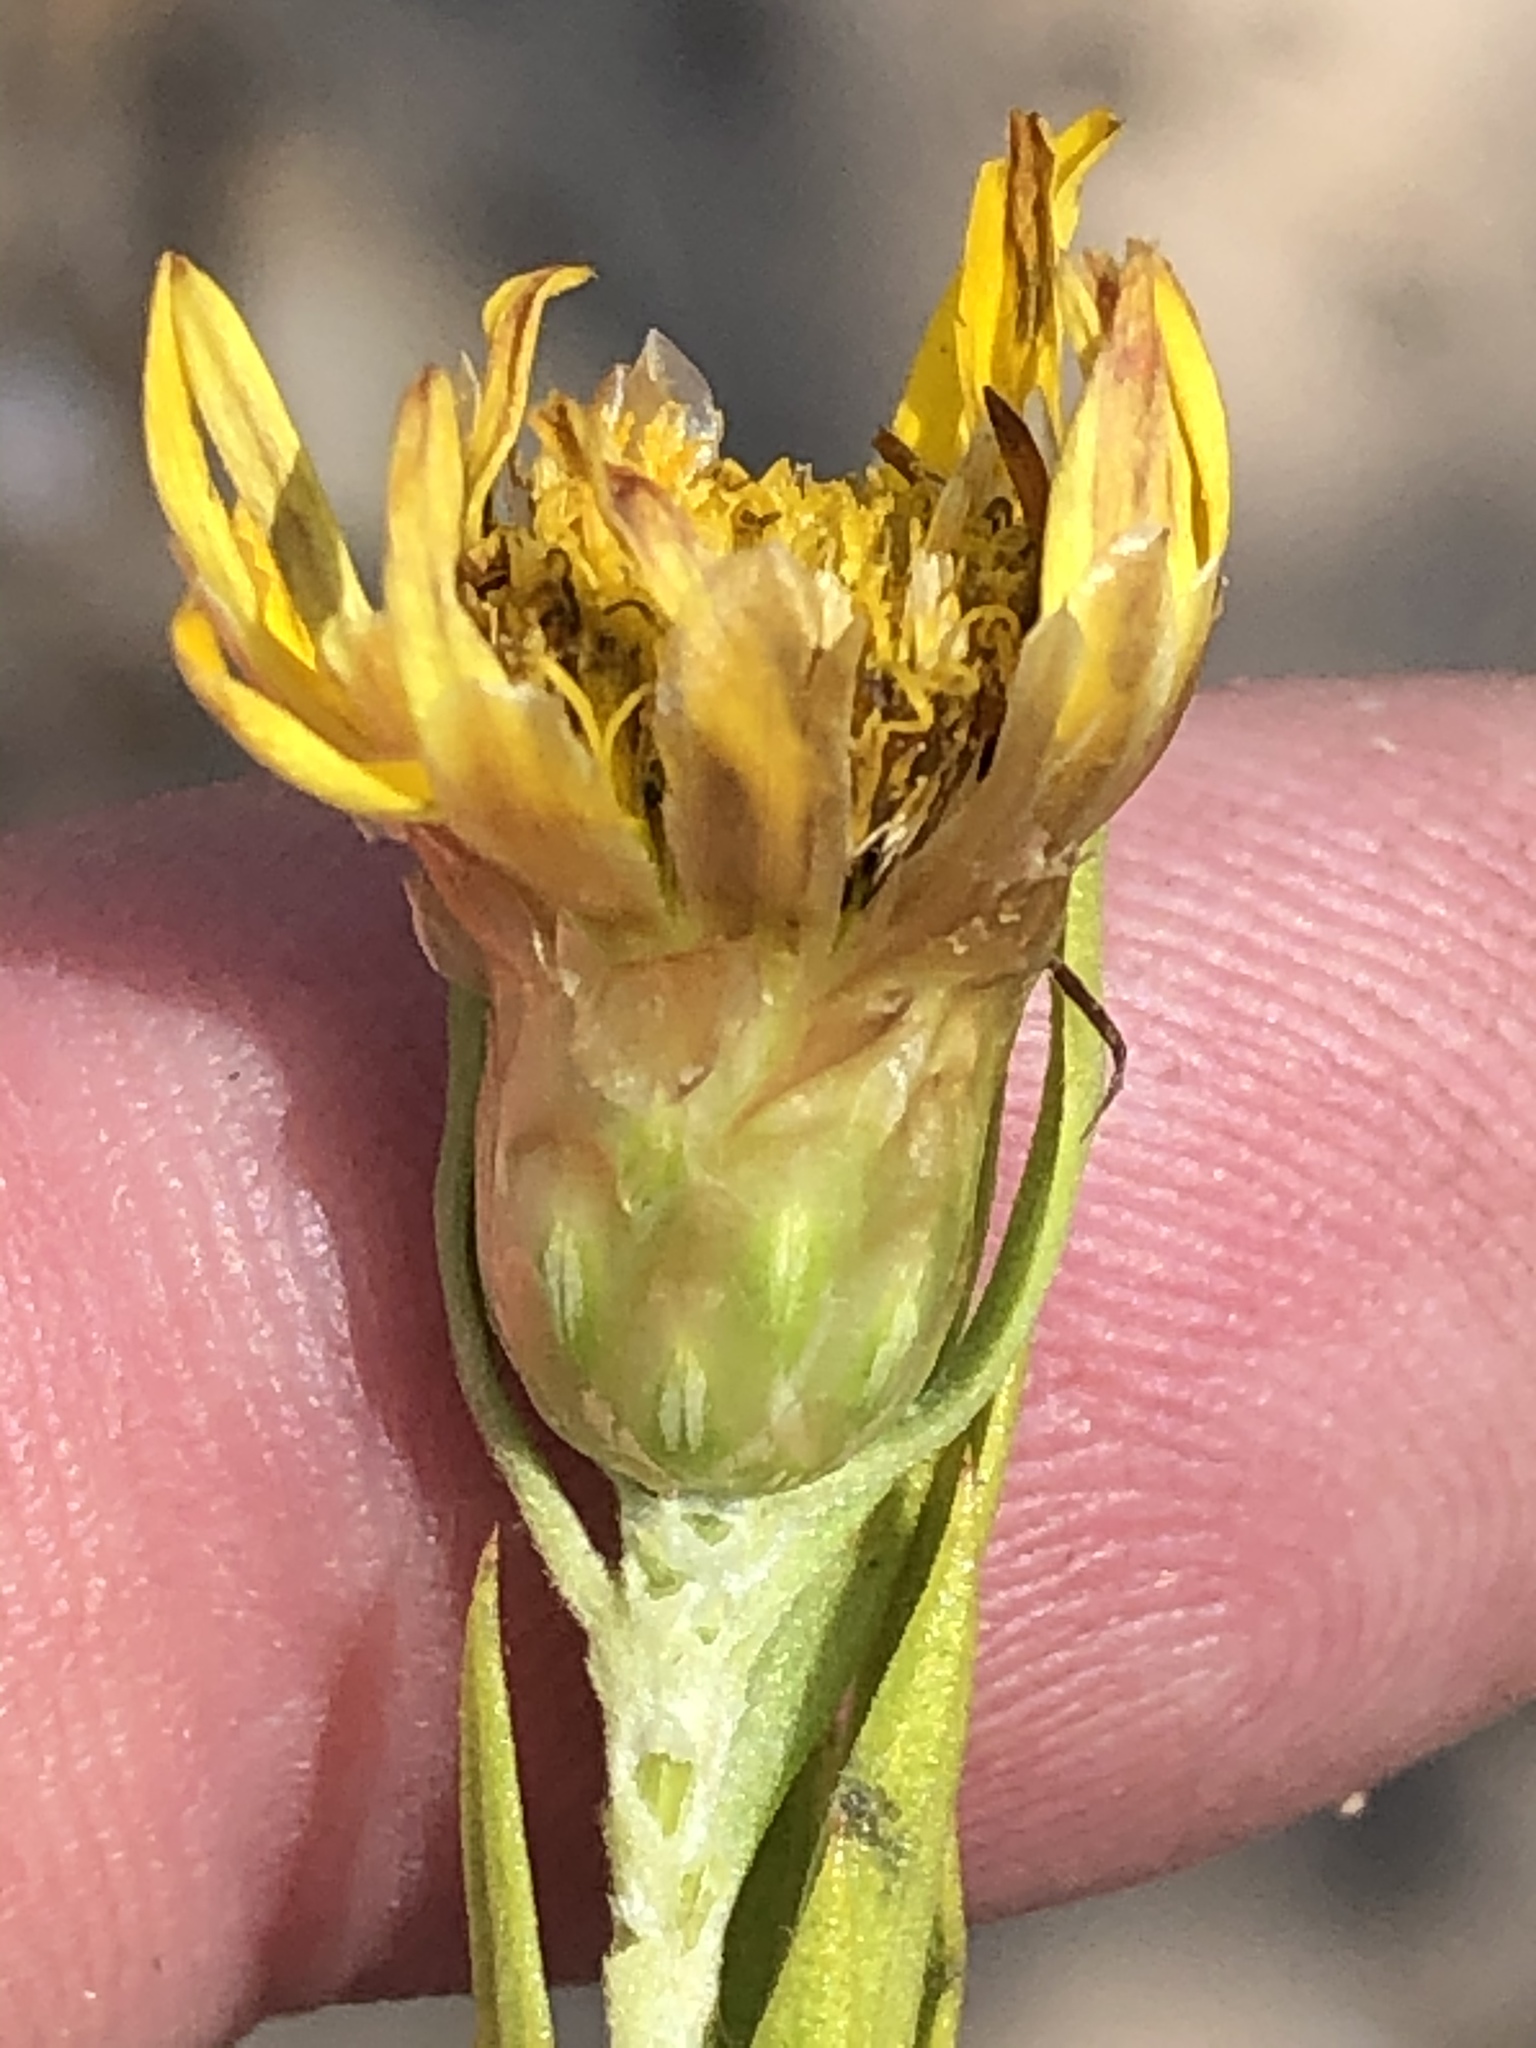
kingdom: Plantae
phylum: Tracheophyta
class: Magnoliopsida
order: Asterales
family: Asteraceae
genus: Oedera
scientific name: Oedera calycina
